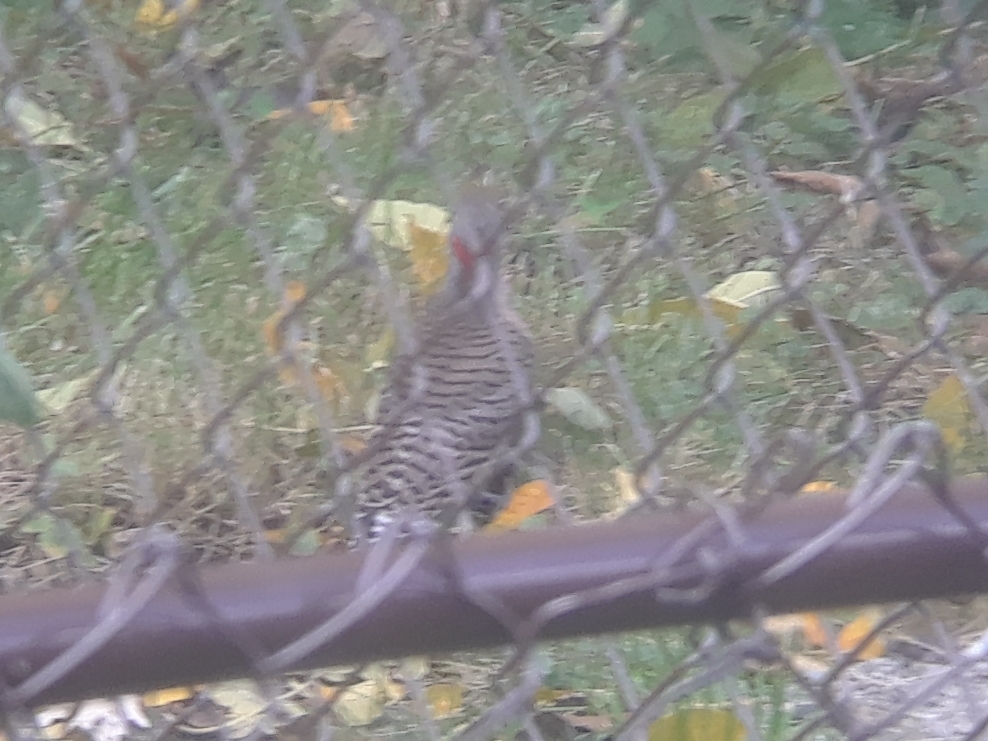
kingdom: Animalia
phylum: Chordata
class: Aves
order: Piciformes
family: Picidae
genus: Colaptes
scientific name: Colaptes auratus
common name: Northern flicker
